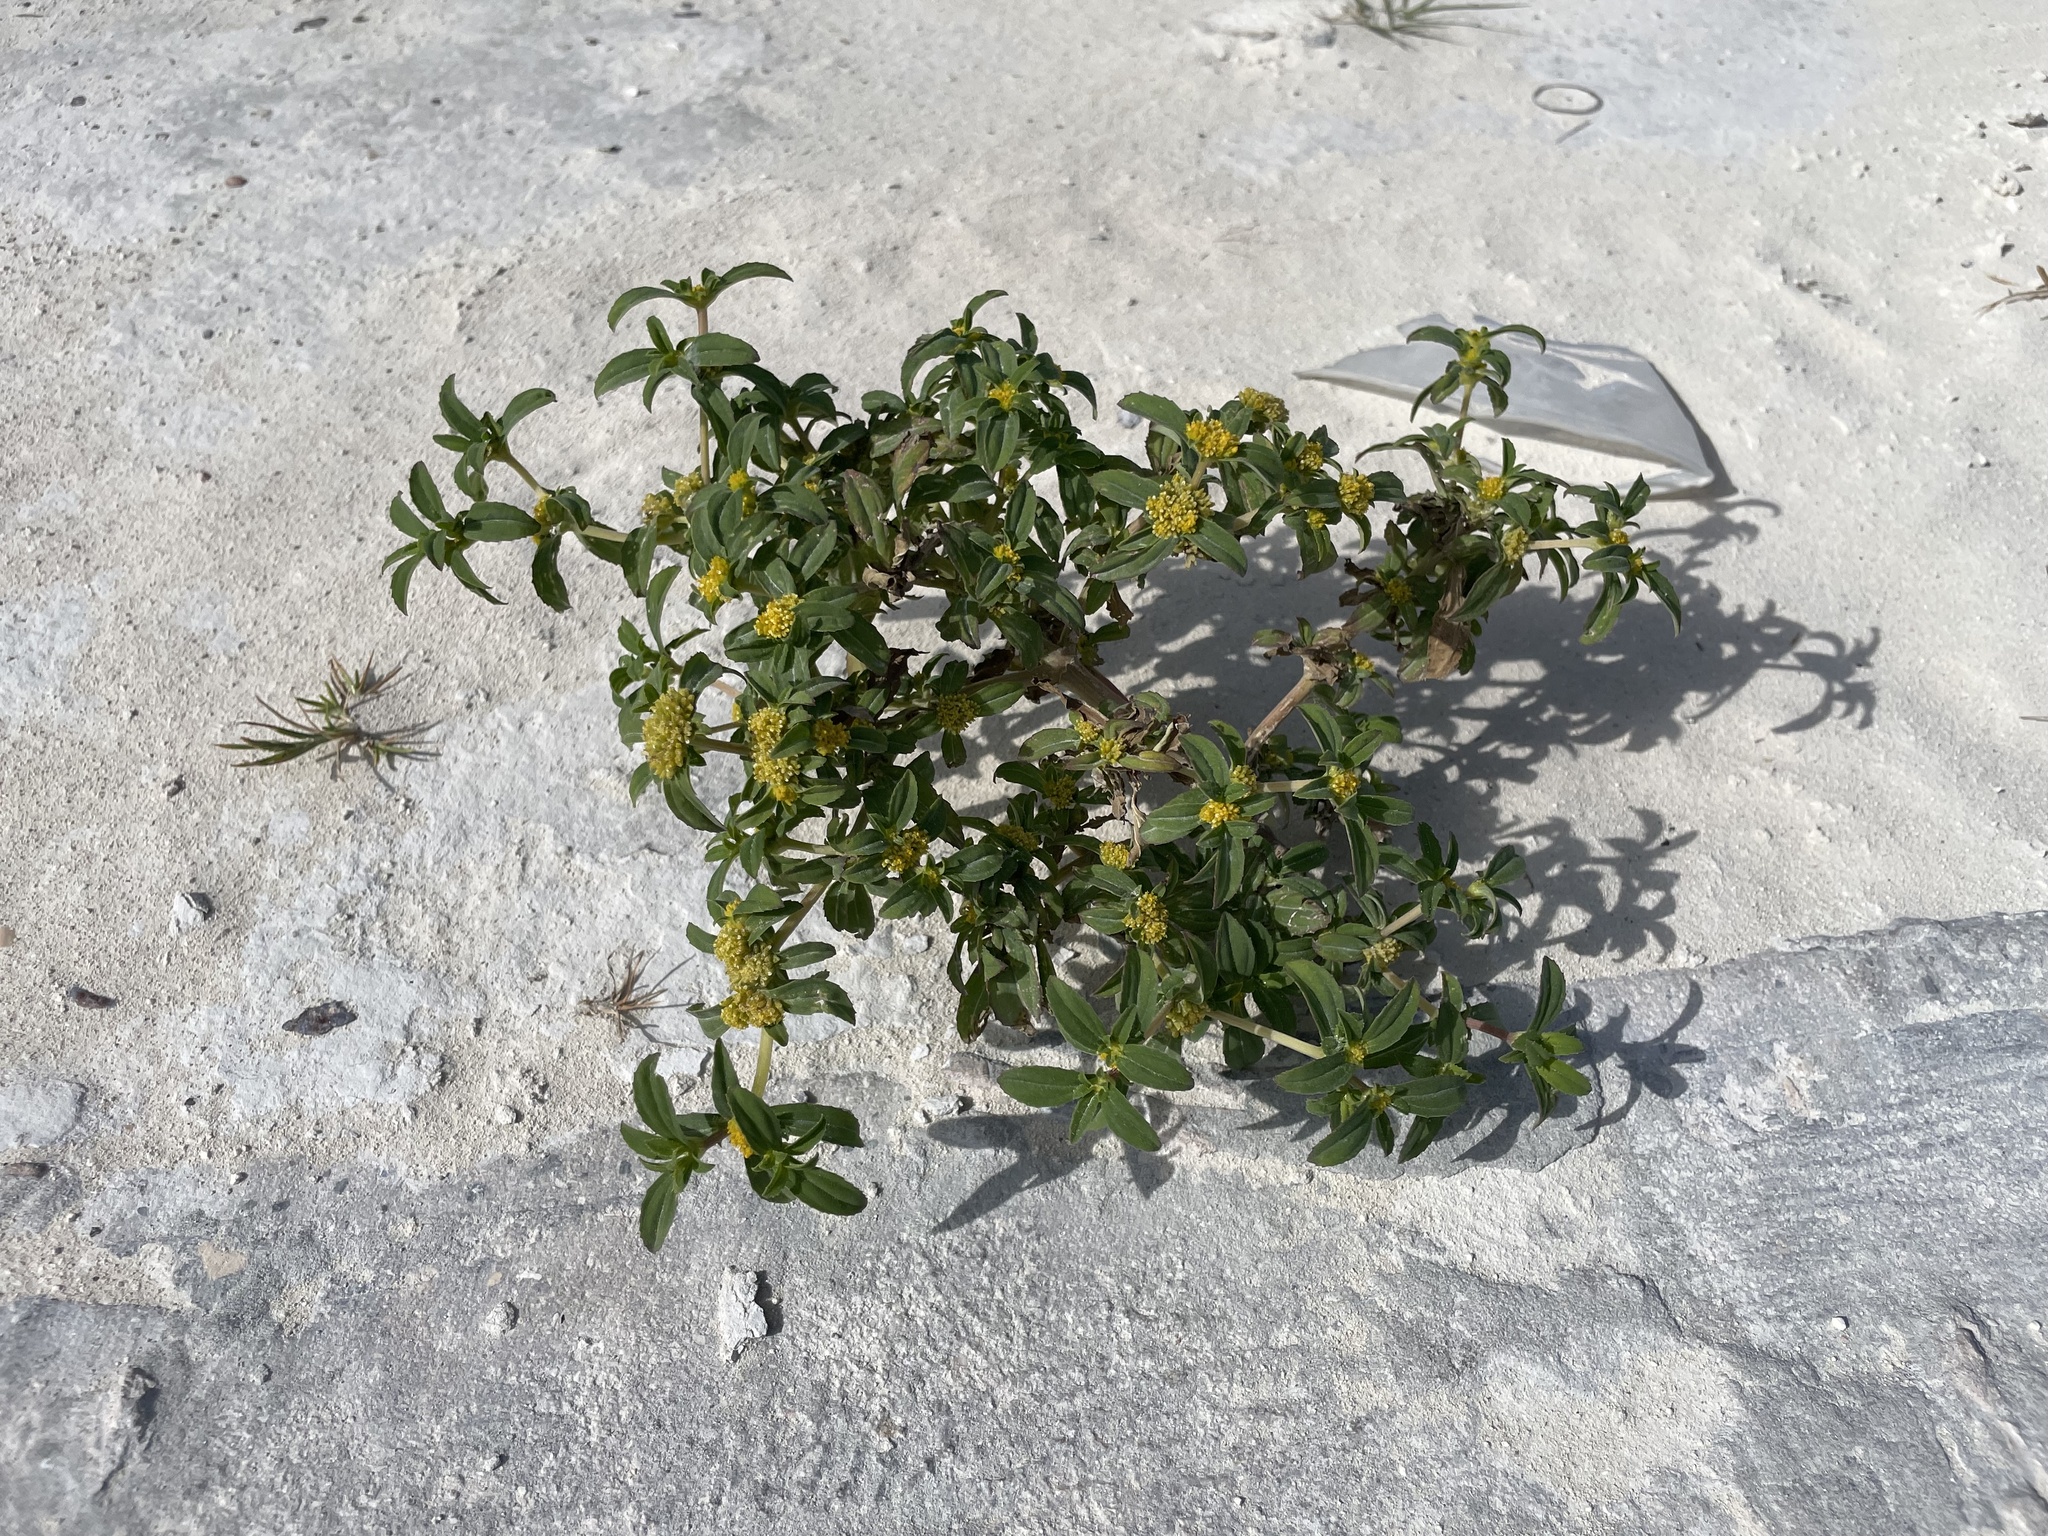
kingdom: Plantae
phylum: Tracheophyta
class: Magnoliopsida
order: Asterales
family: Asteraceae
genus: Flaveria
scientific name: Flaveria trinervia
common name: Clustered yellowtops
